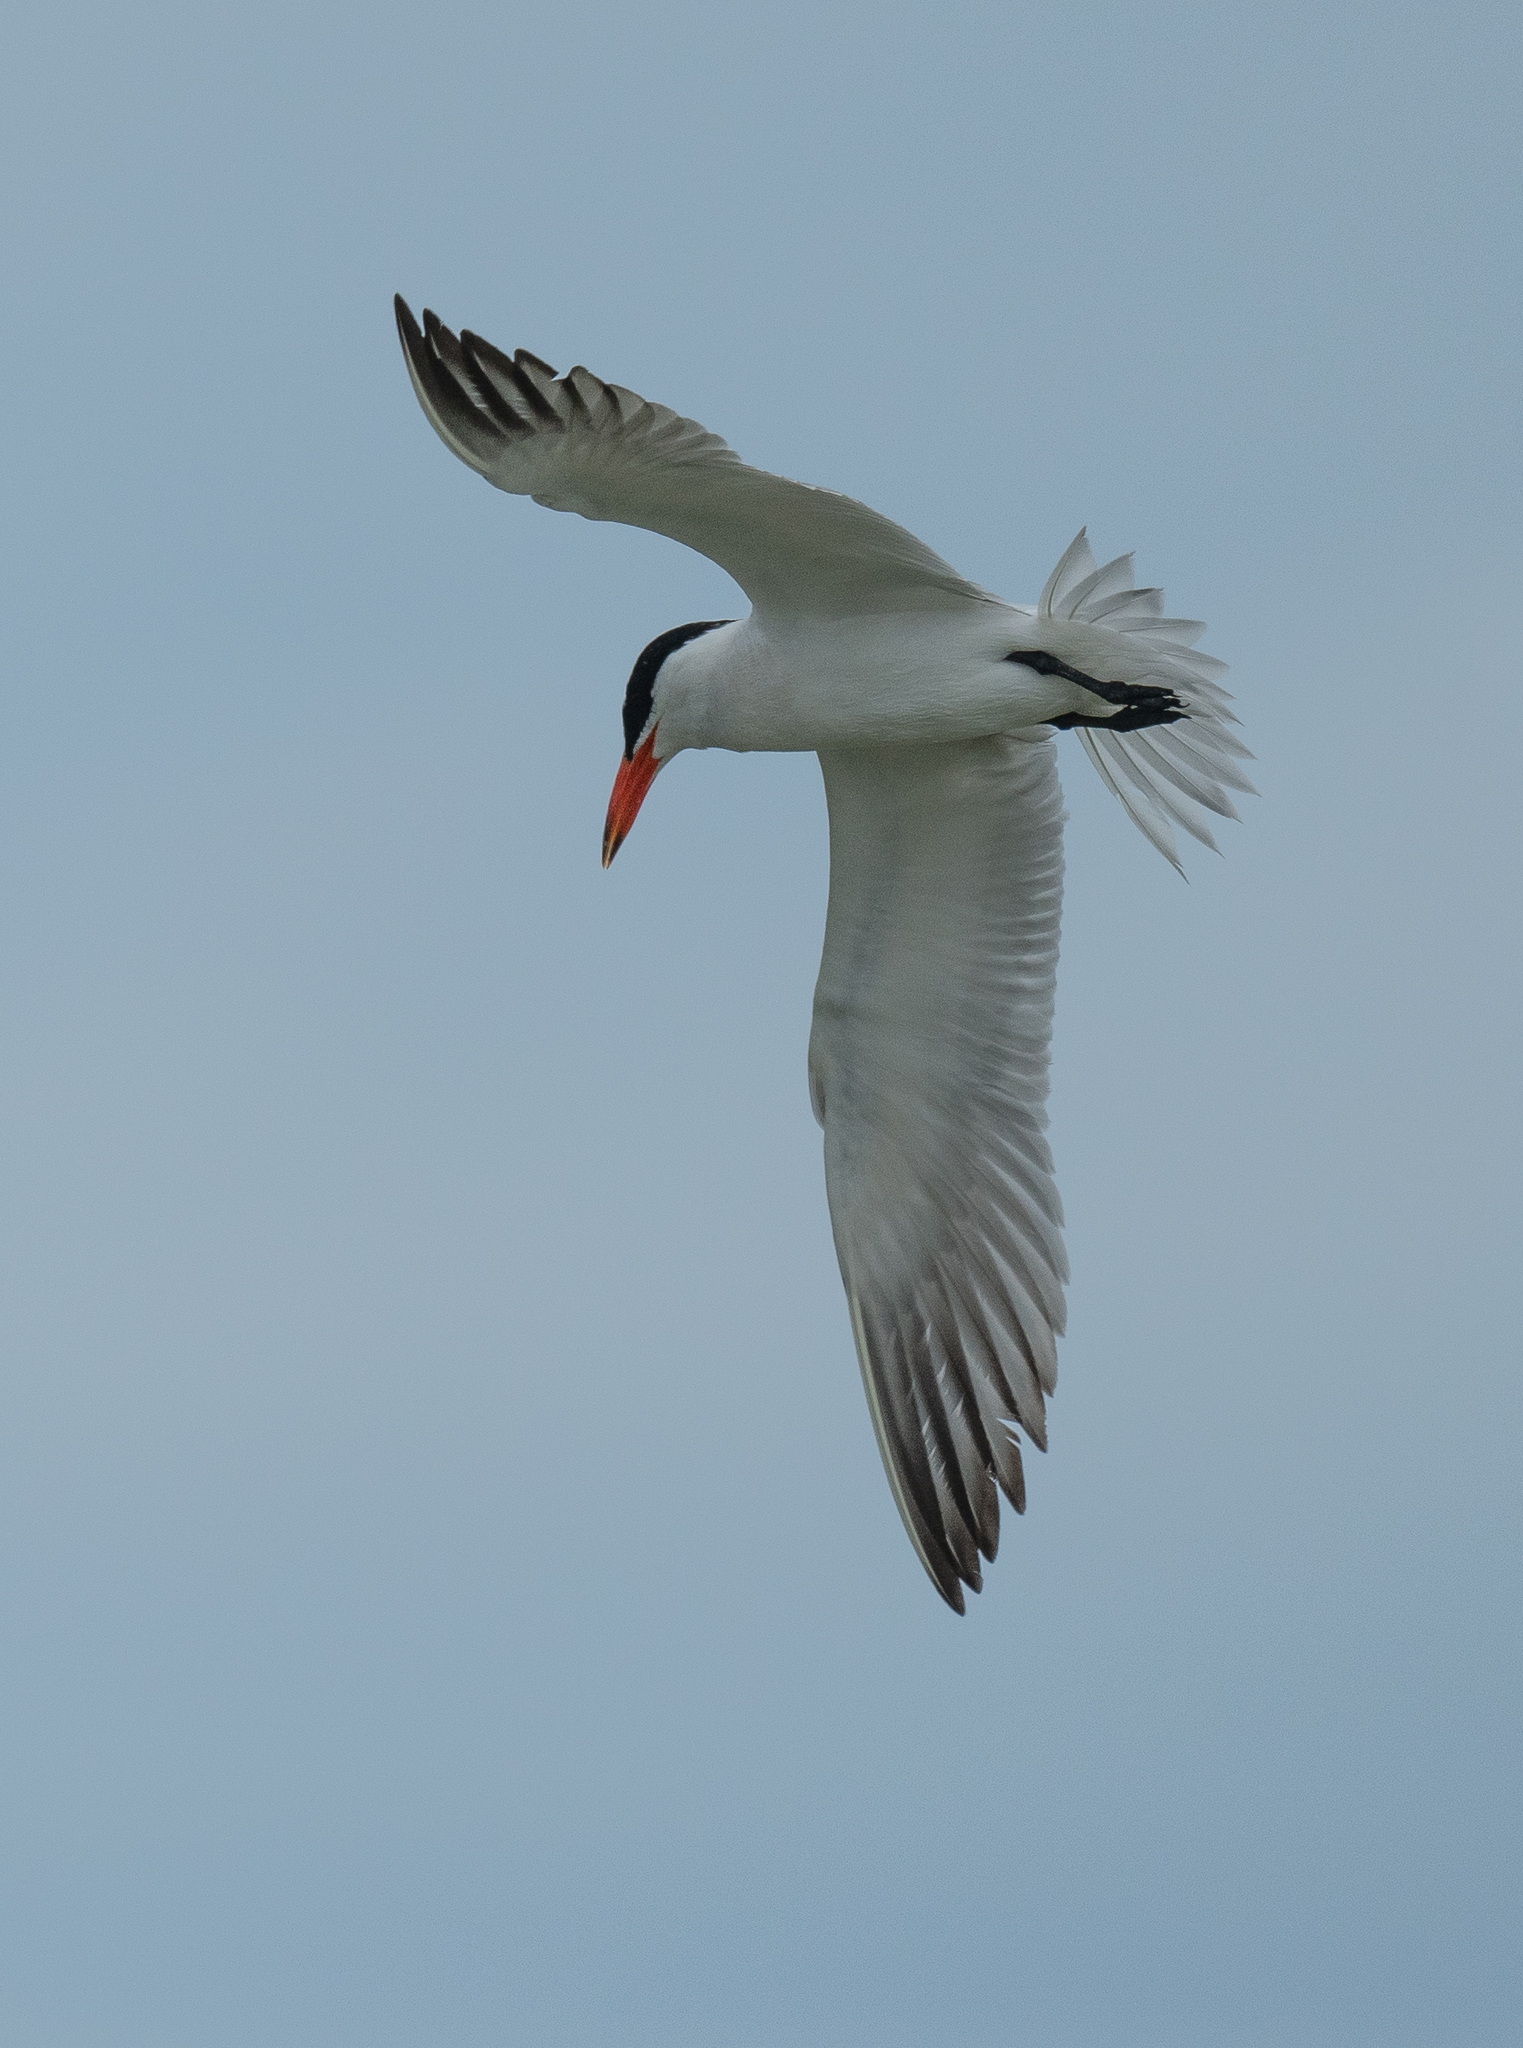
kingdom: Animalia
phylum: Chordata
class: Aves
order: Charadriiformes
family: Laridae
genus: Hydroprogne
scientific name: Hydroprogne caspia
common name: Caspian tern
